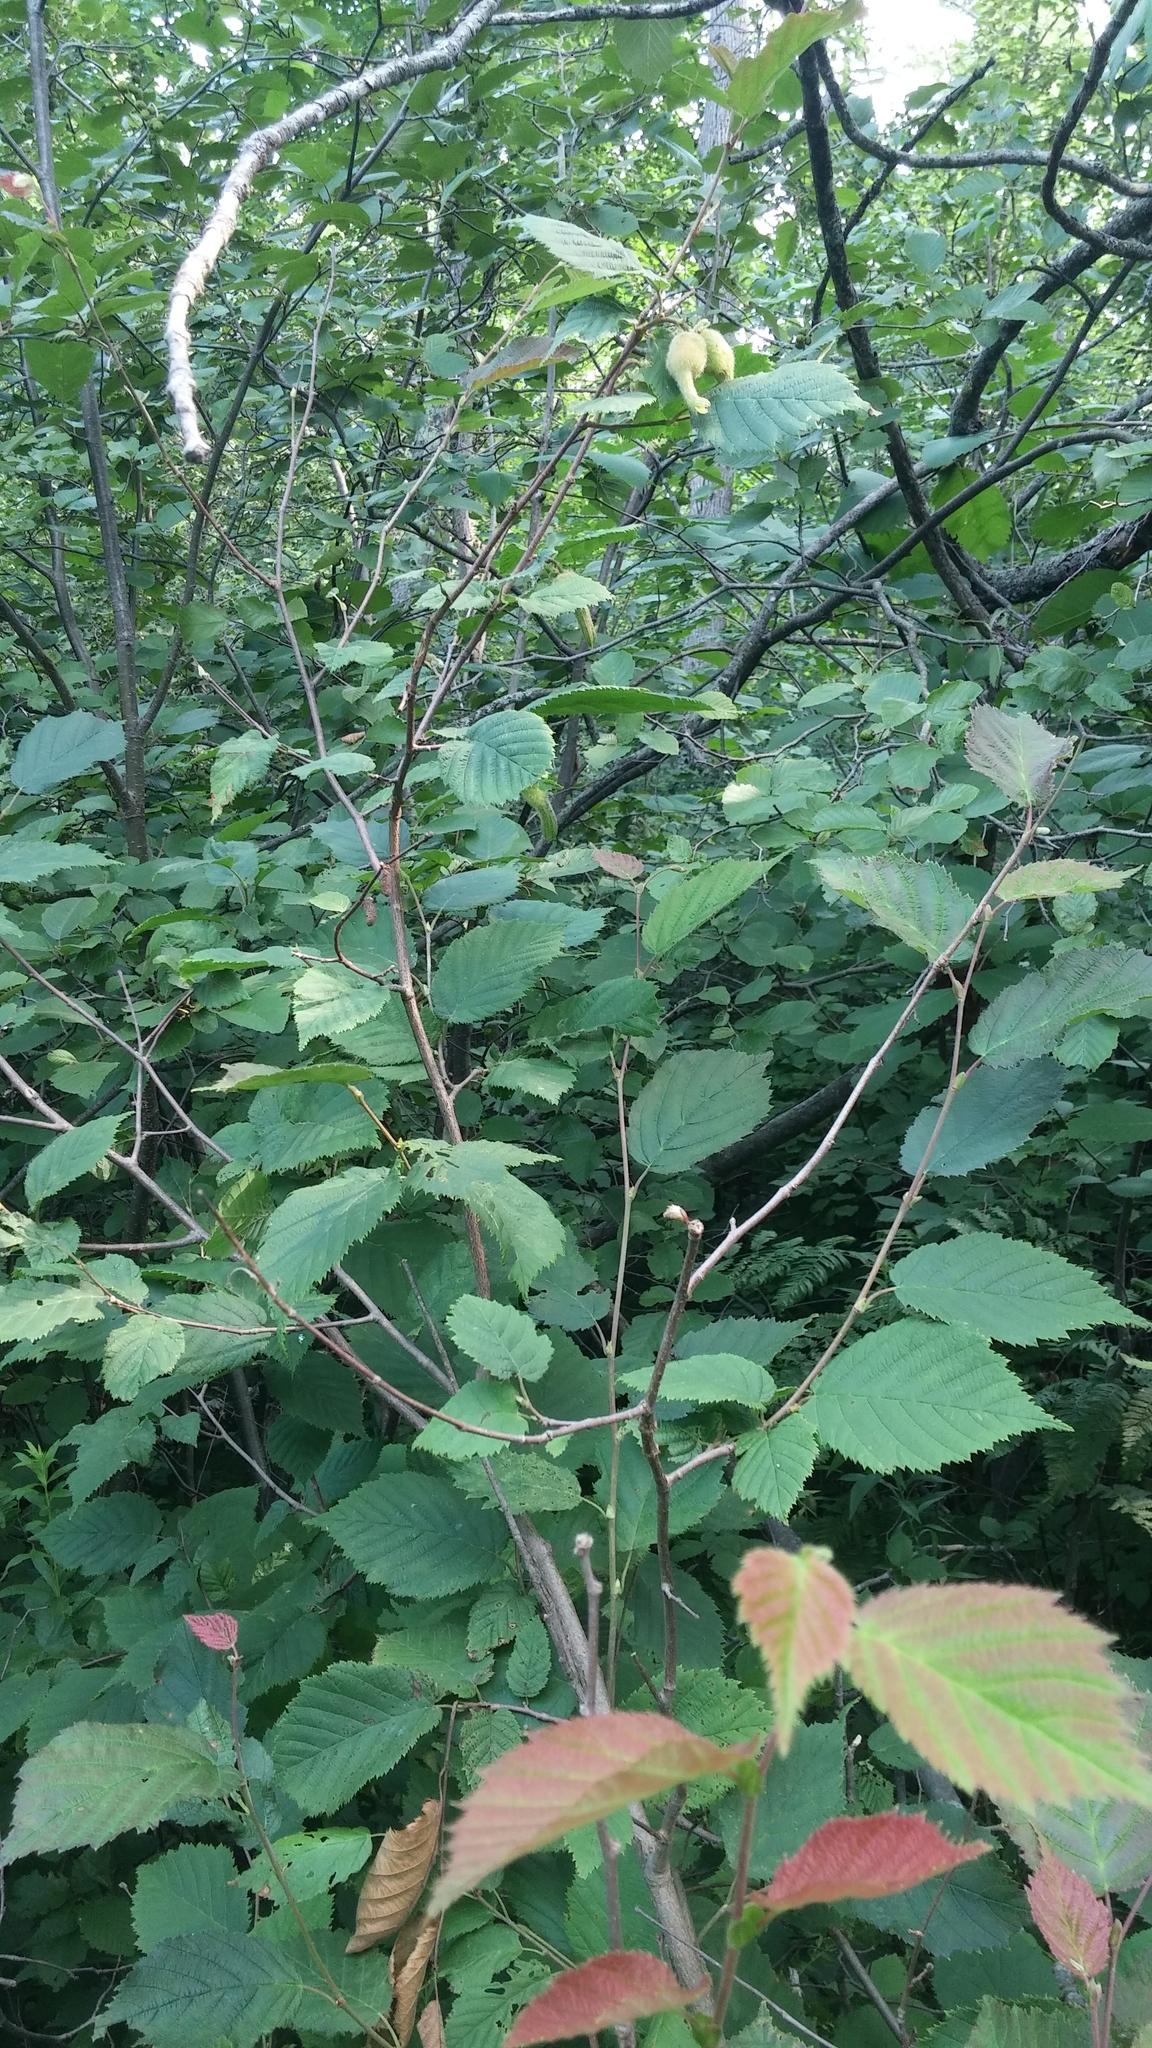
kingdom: Plantae
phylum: Tracheophyta
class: Magnoliopsida
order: Fagales
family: Betulaceae
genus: Corylus
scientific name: Corylus cornuta
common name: Beaked hazel
